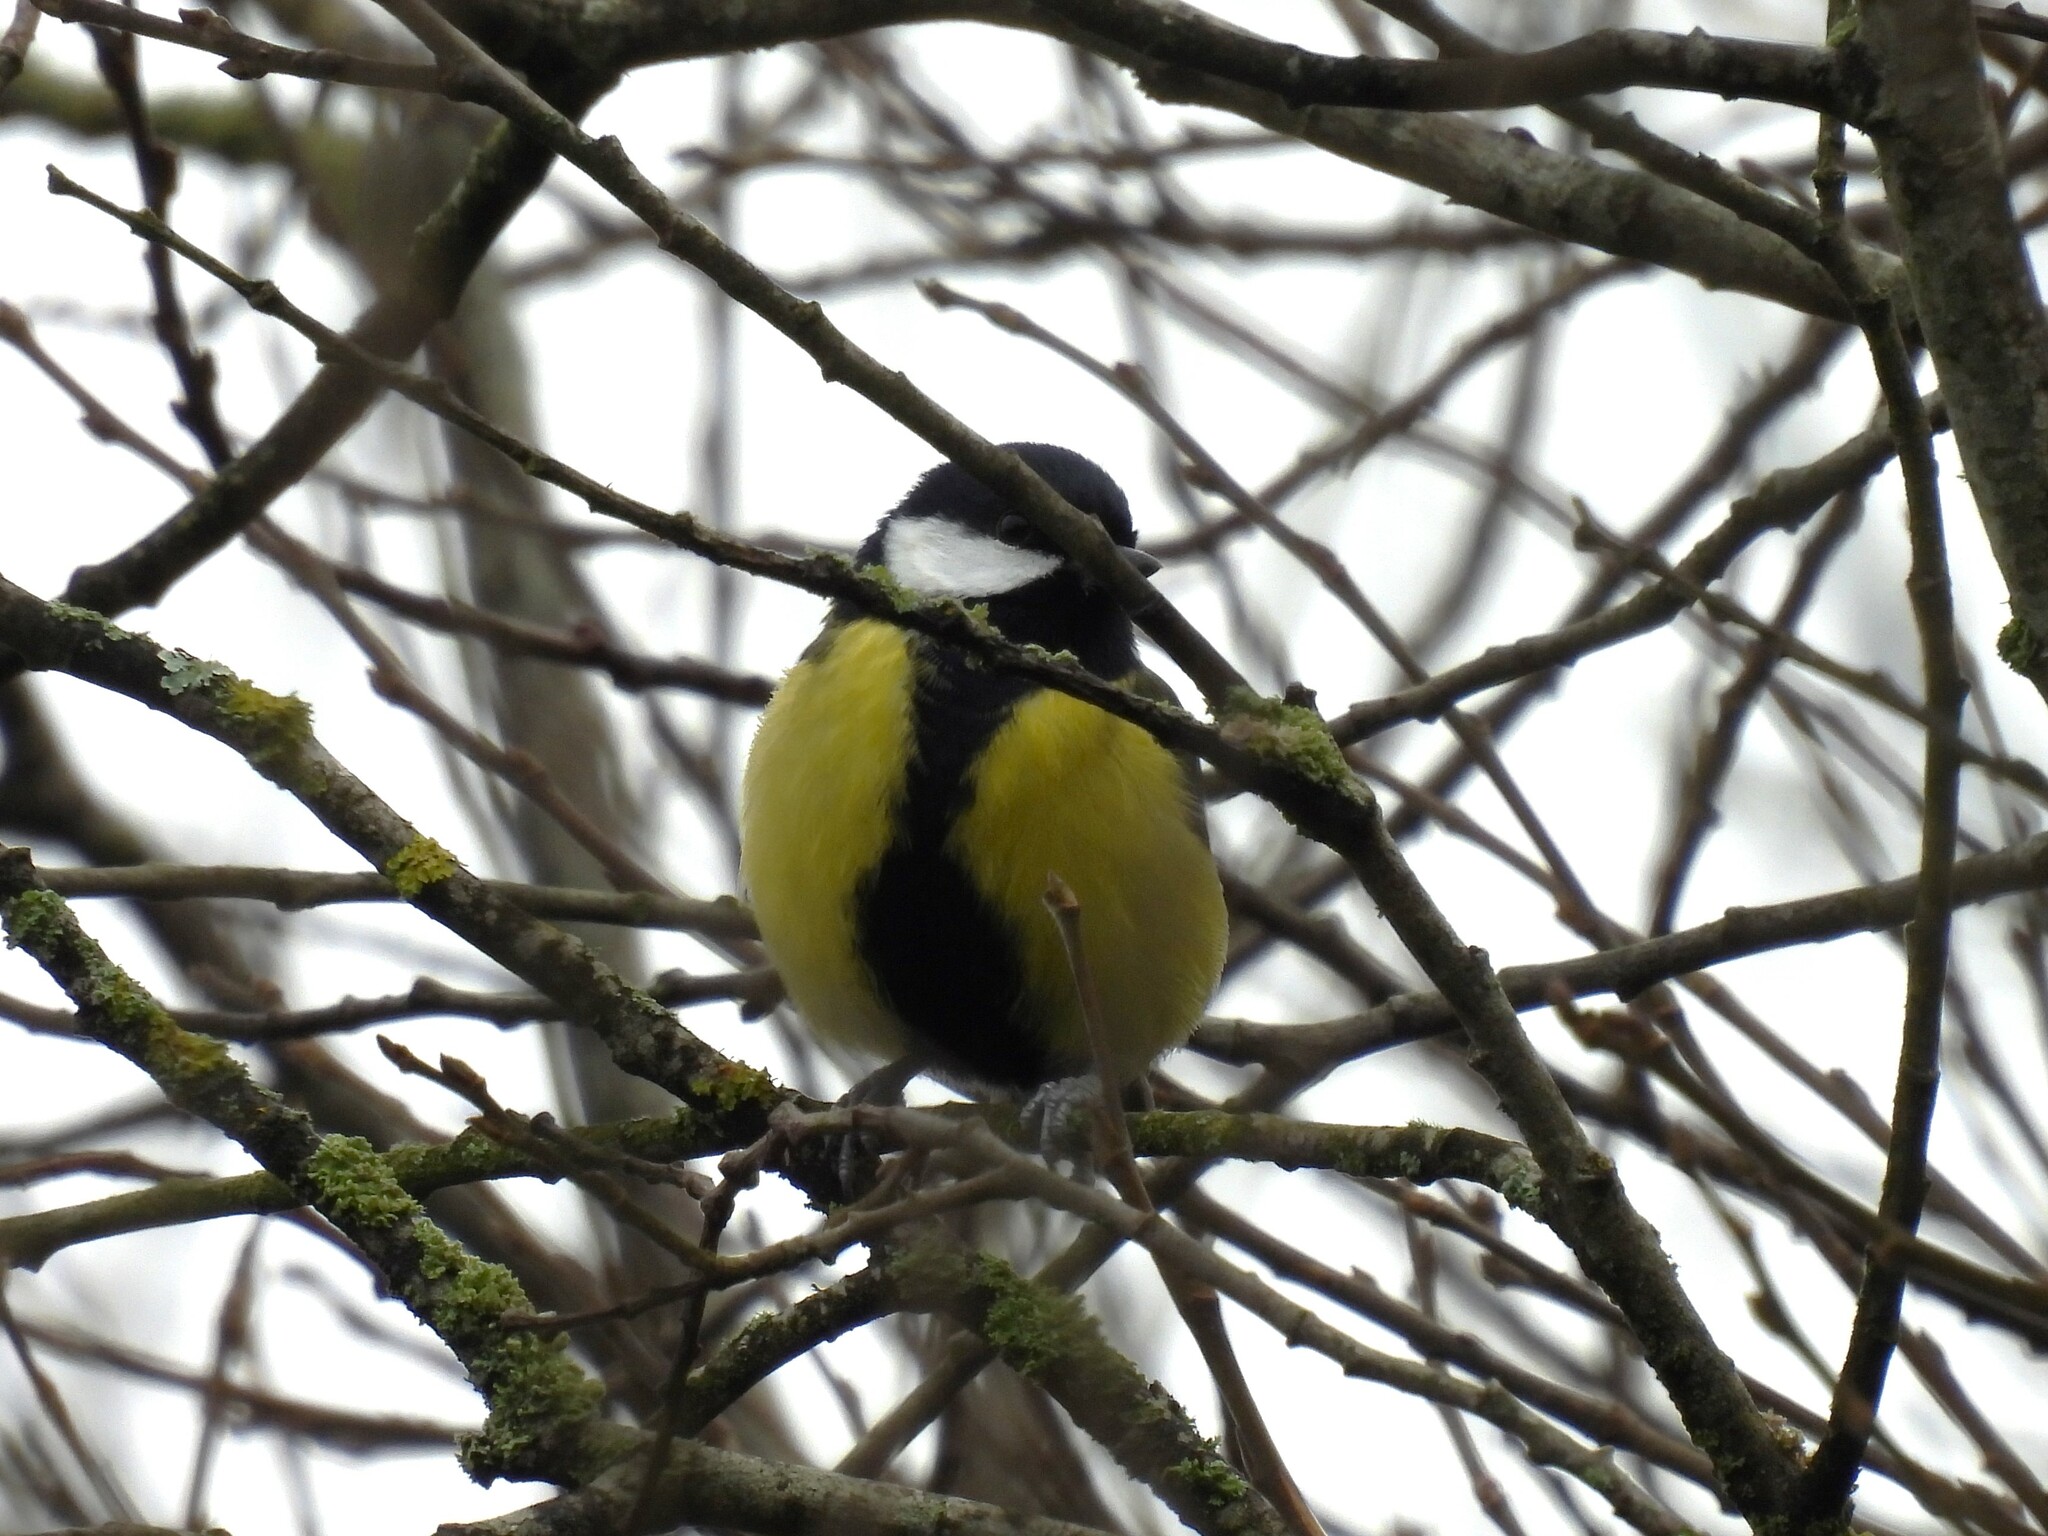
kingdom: Animalia
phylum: Chordata
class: Aves
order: Passeriformes
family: Paridae
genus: Parus
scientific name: Parus major
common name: Great tit
